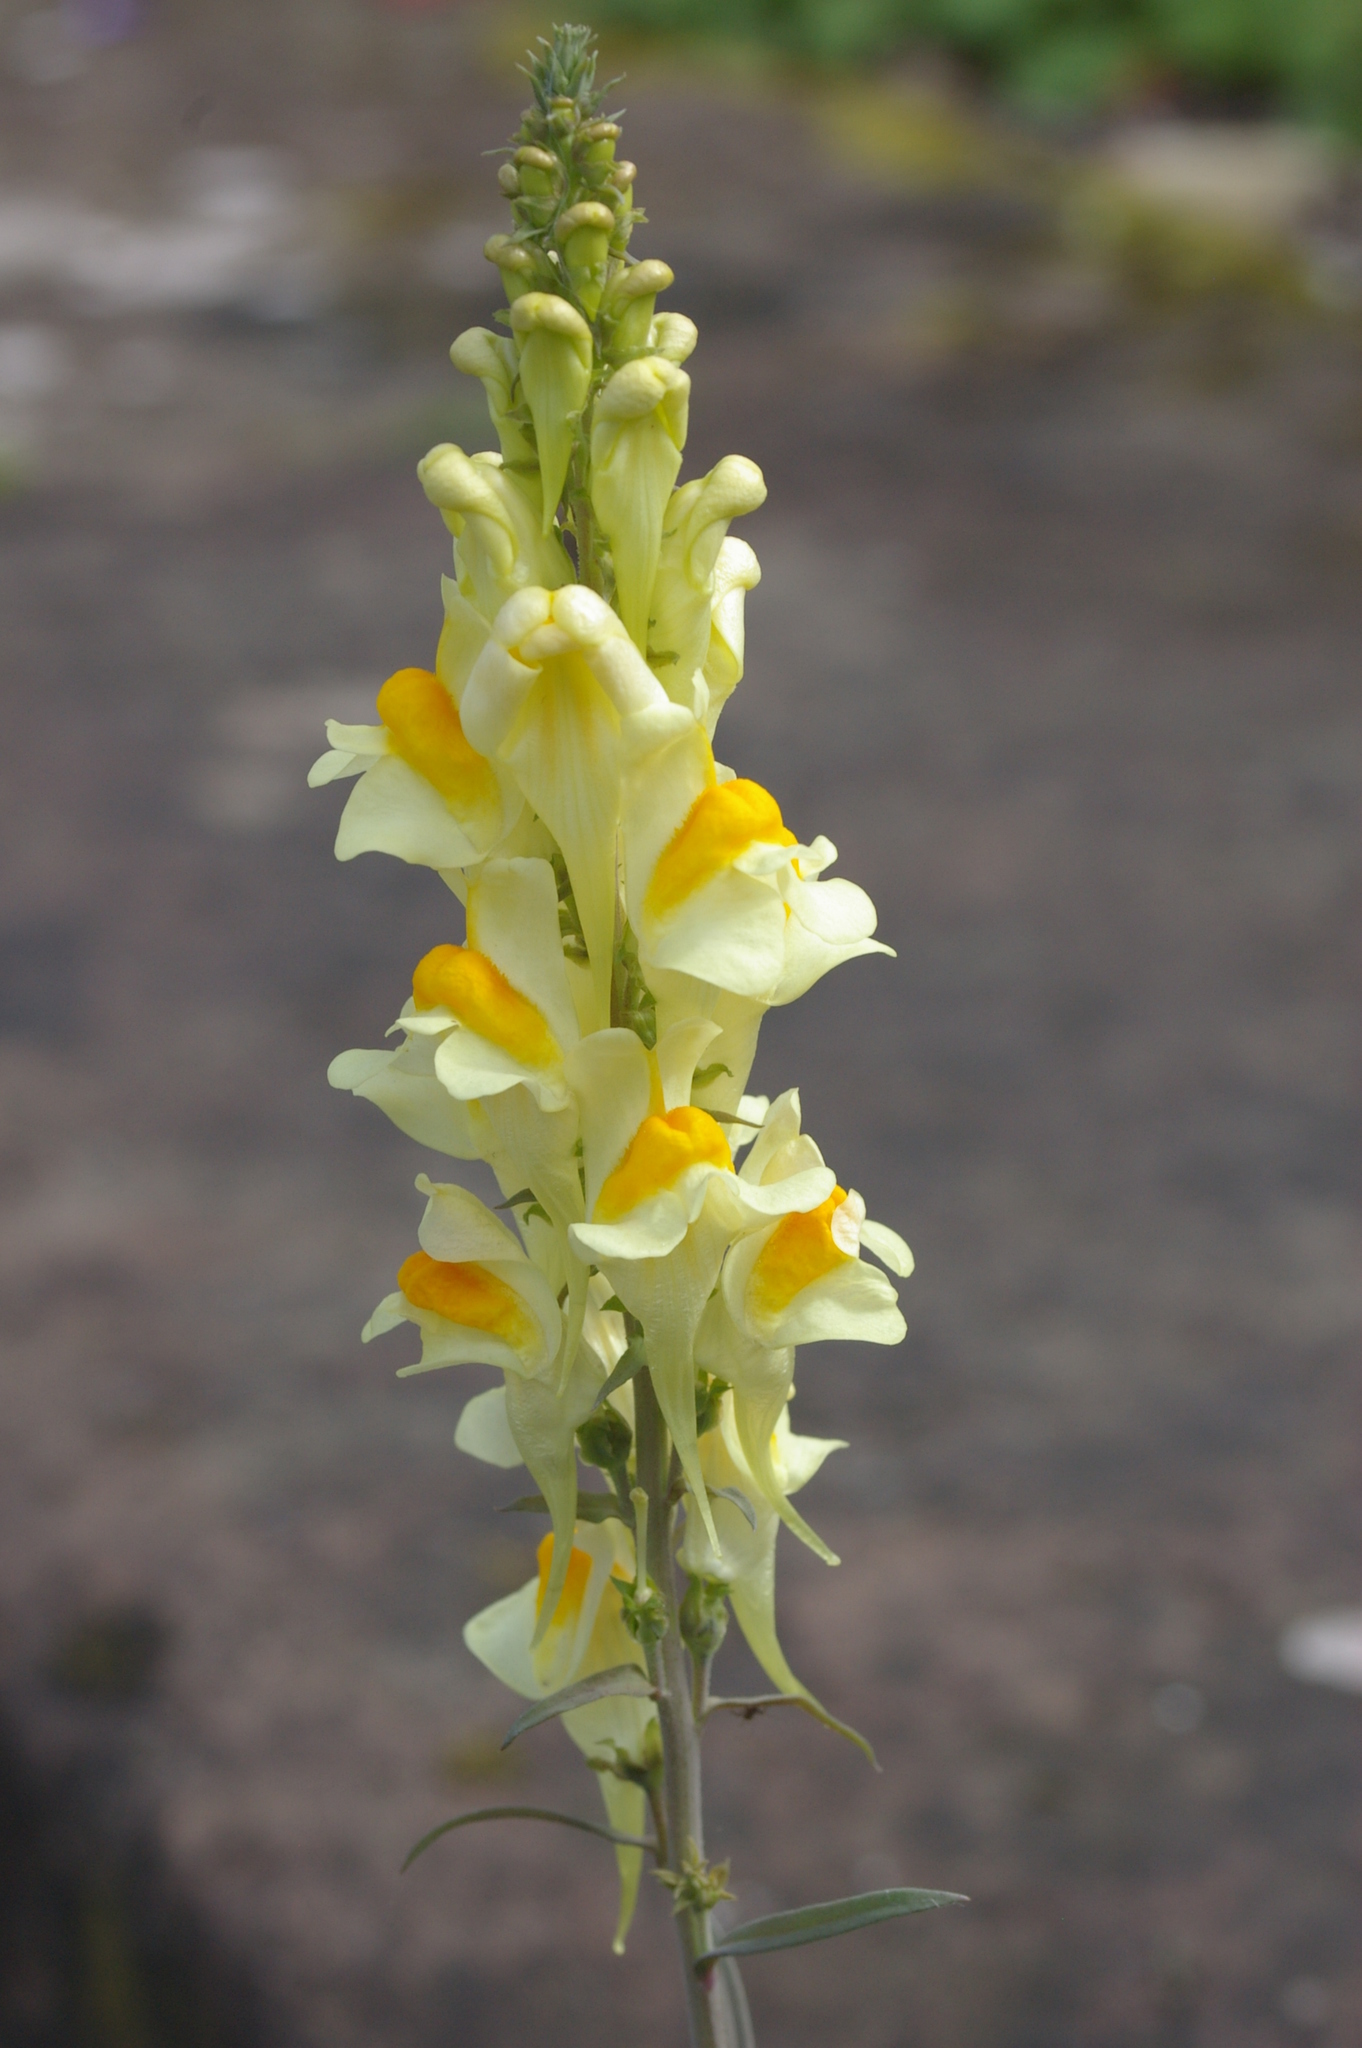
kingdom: Plantae
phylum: Tracheophyta
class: Magnoliopsida
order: Lamiales
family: Plantaginaceae
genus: Linaria
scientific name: Linaria vulgaris
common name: Butter and eggs
